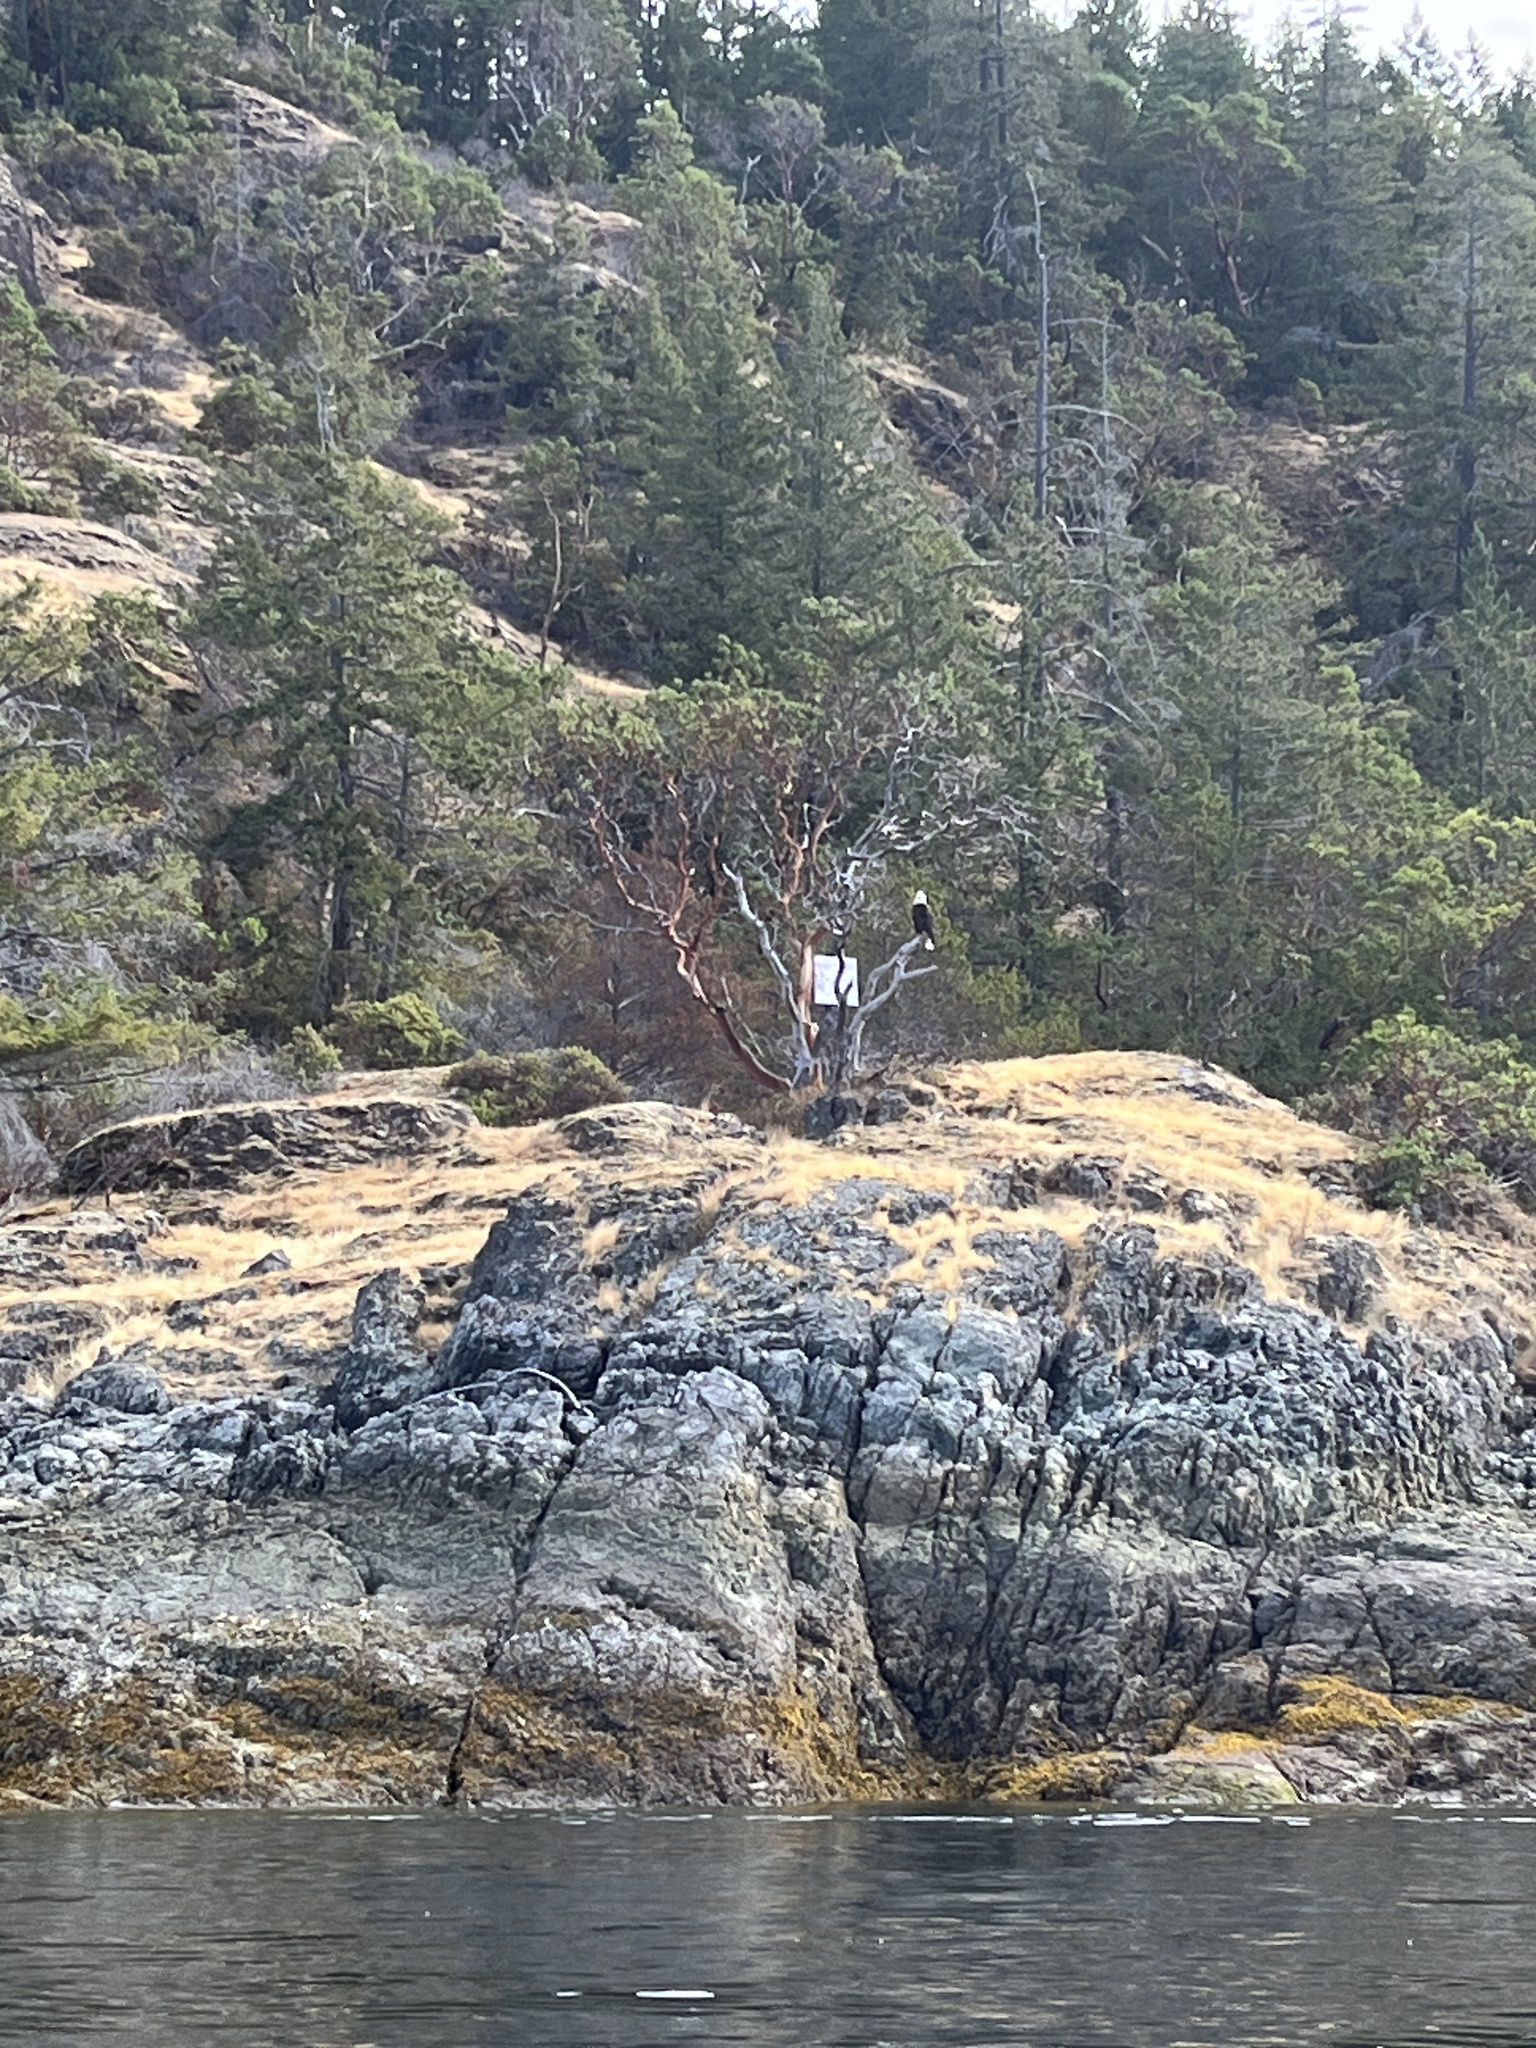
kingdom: Animalia
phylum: Chordata
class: Aves
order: Accipitriformes
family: Accipitridae
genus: Haliaeetus
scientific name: Haliaeetus leucocephalus
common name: Bald eagle
